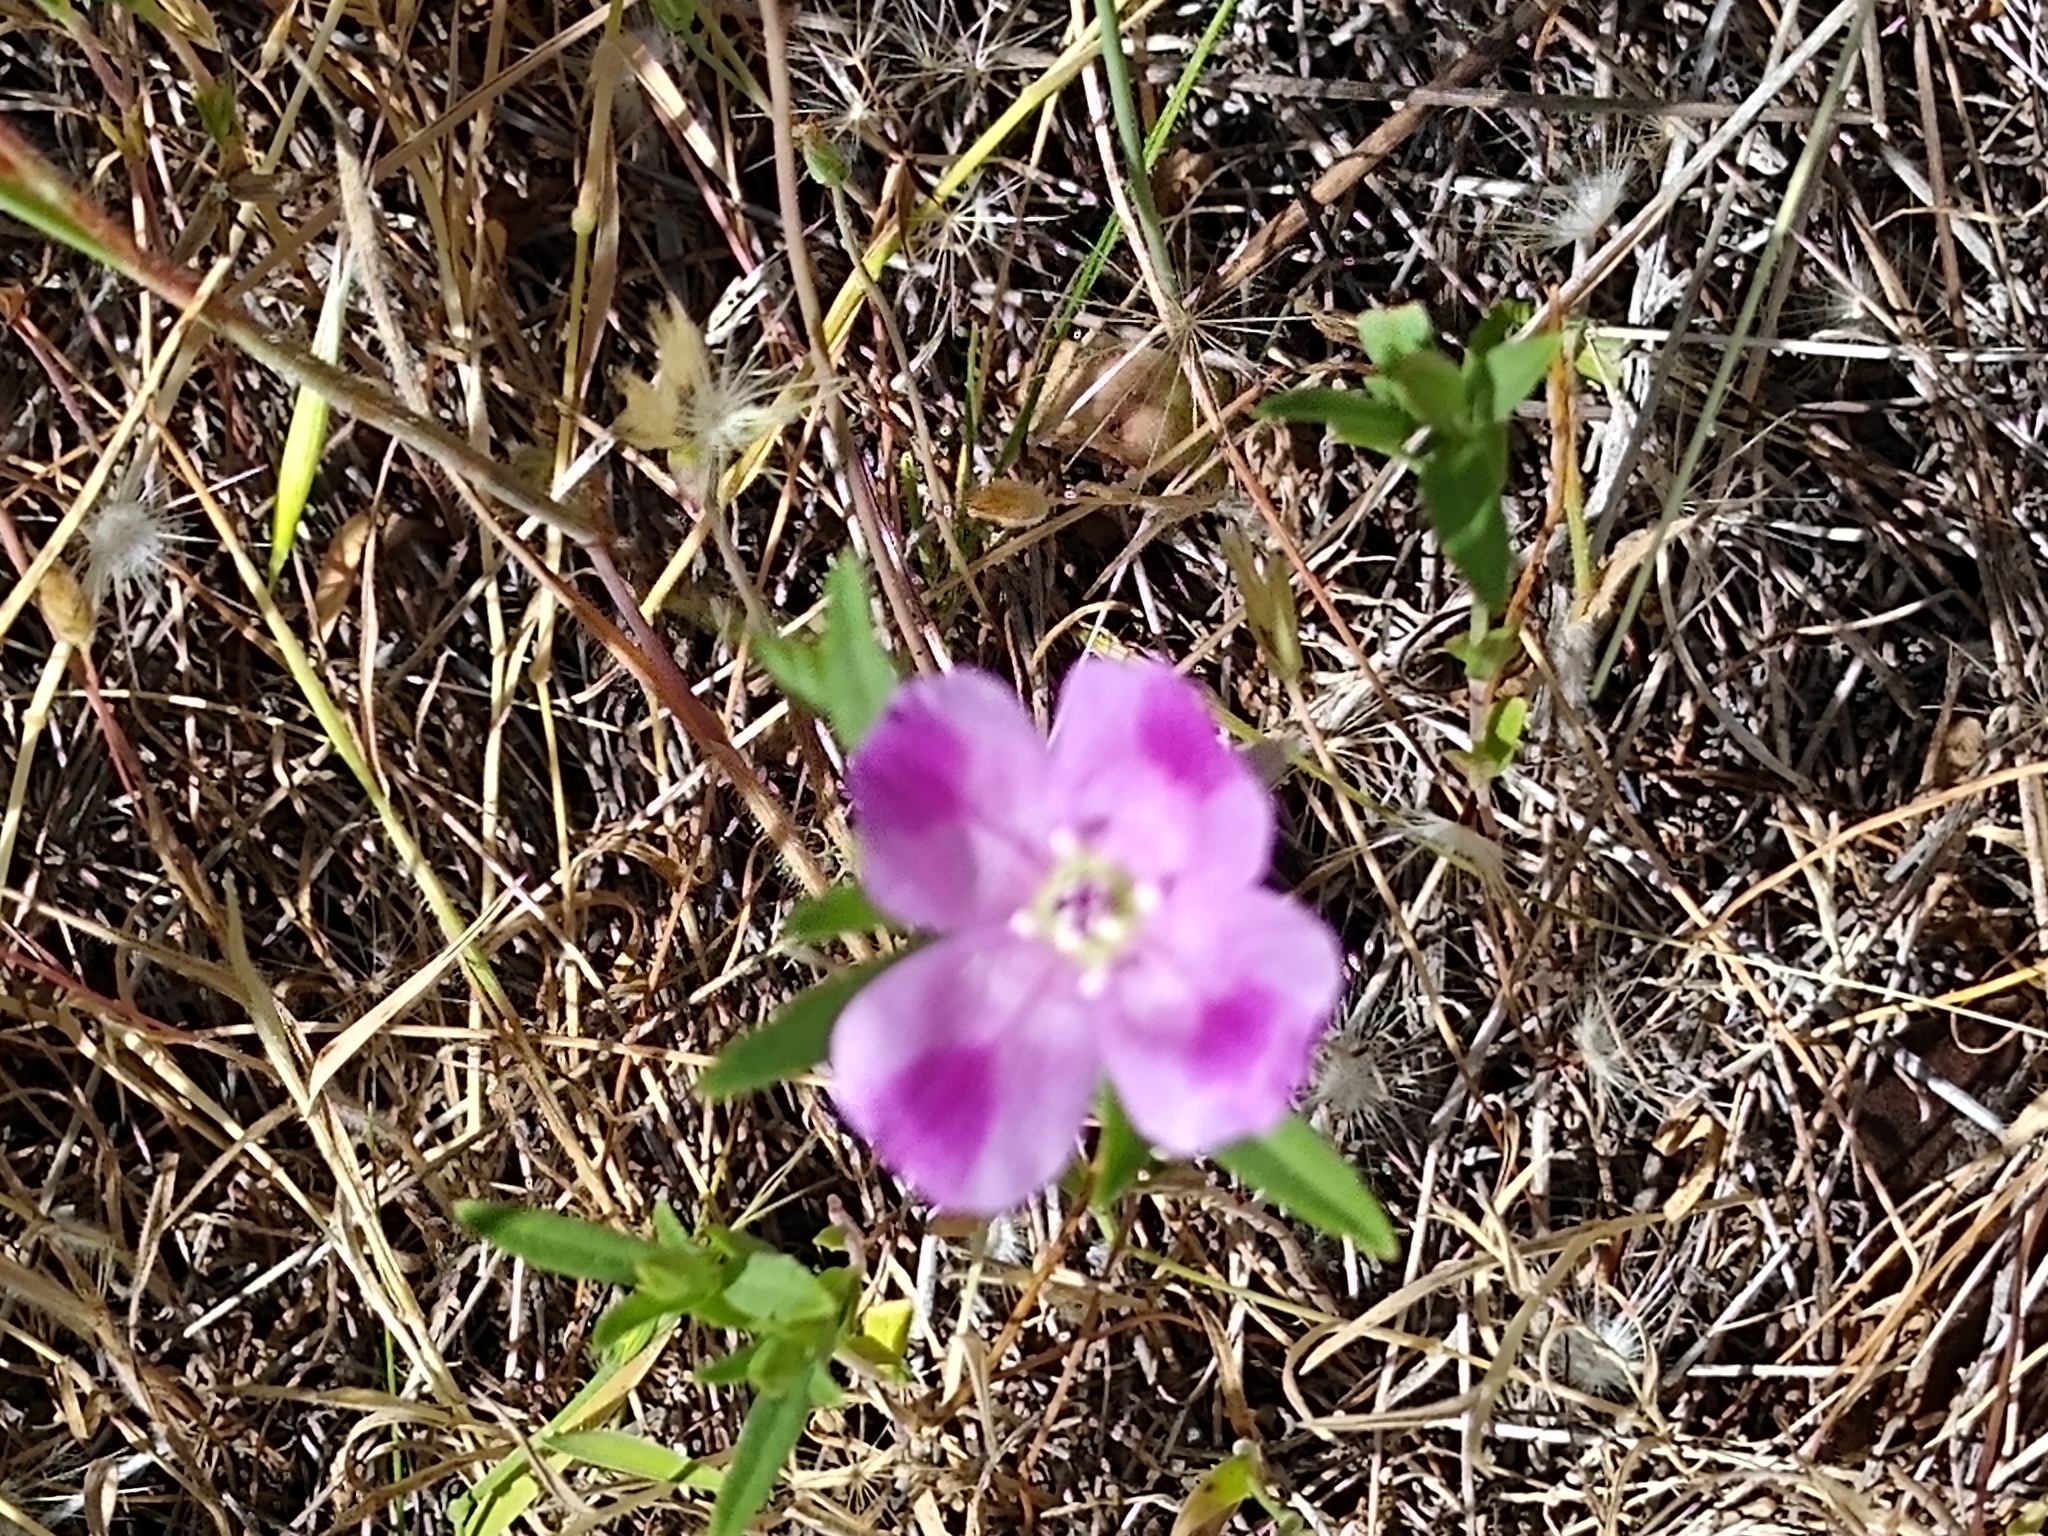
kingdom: Plantae
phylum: Tracheophyta
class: Magnoliopsida
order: Myrtales
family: Onagraceae
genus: Clarkia
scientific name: Clarkia purpurea
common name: Purple clarkia
